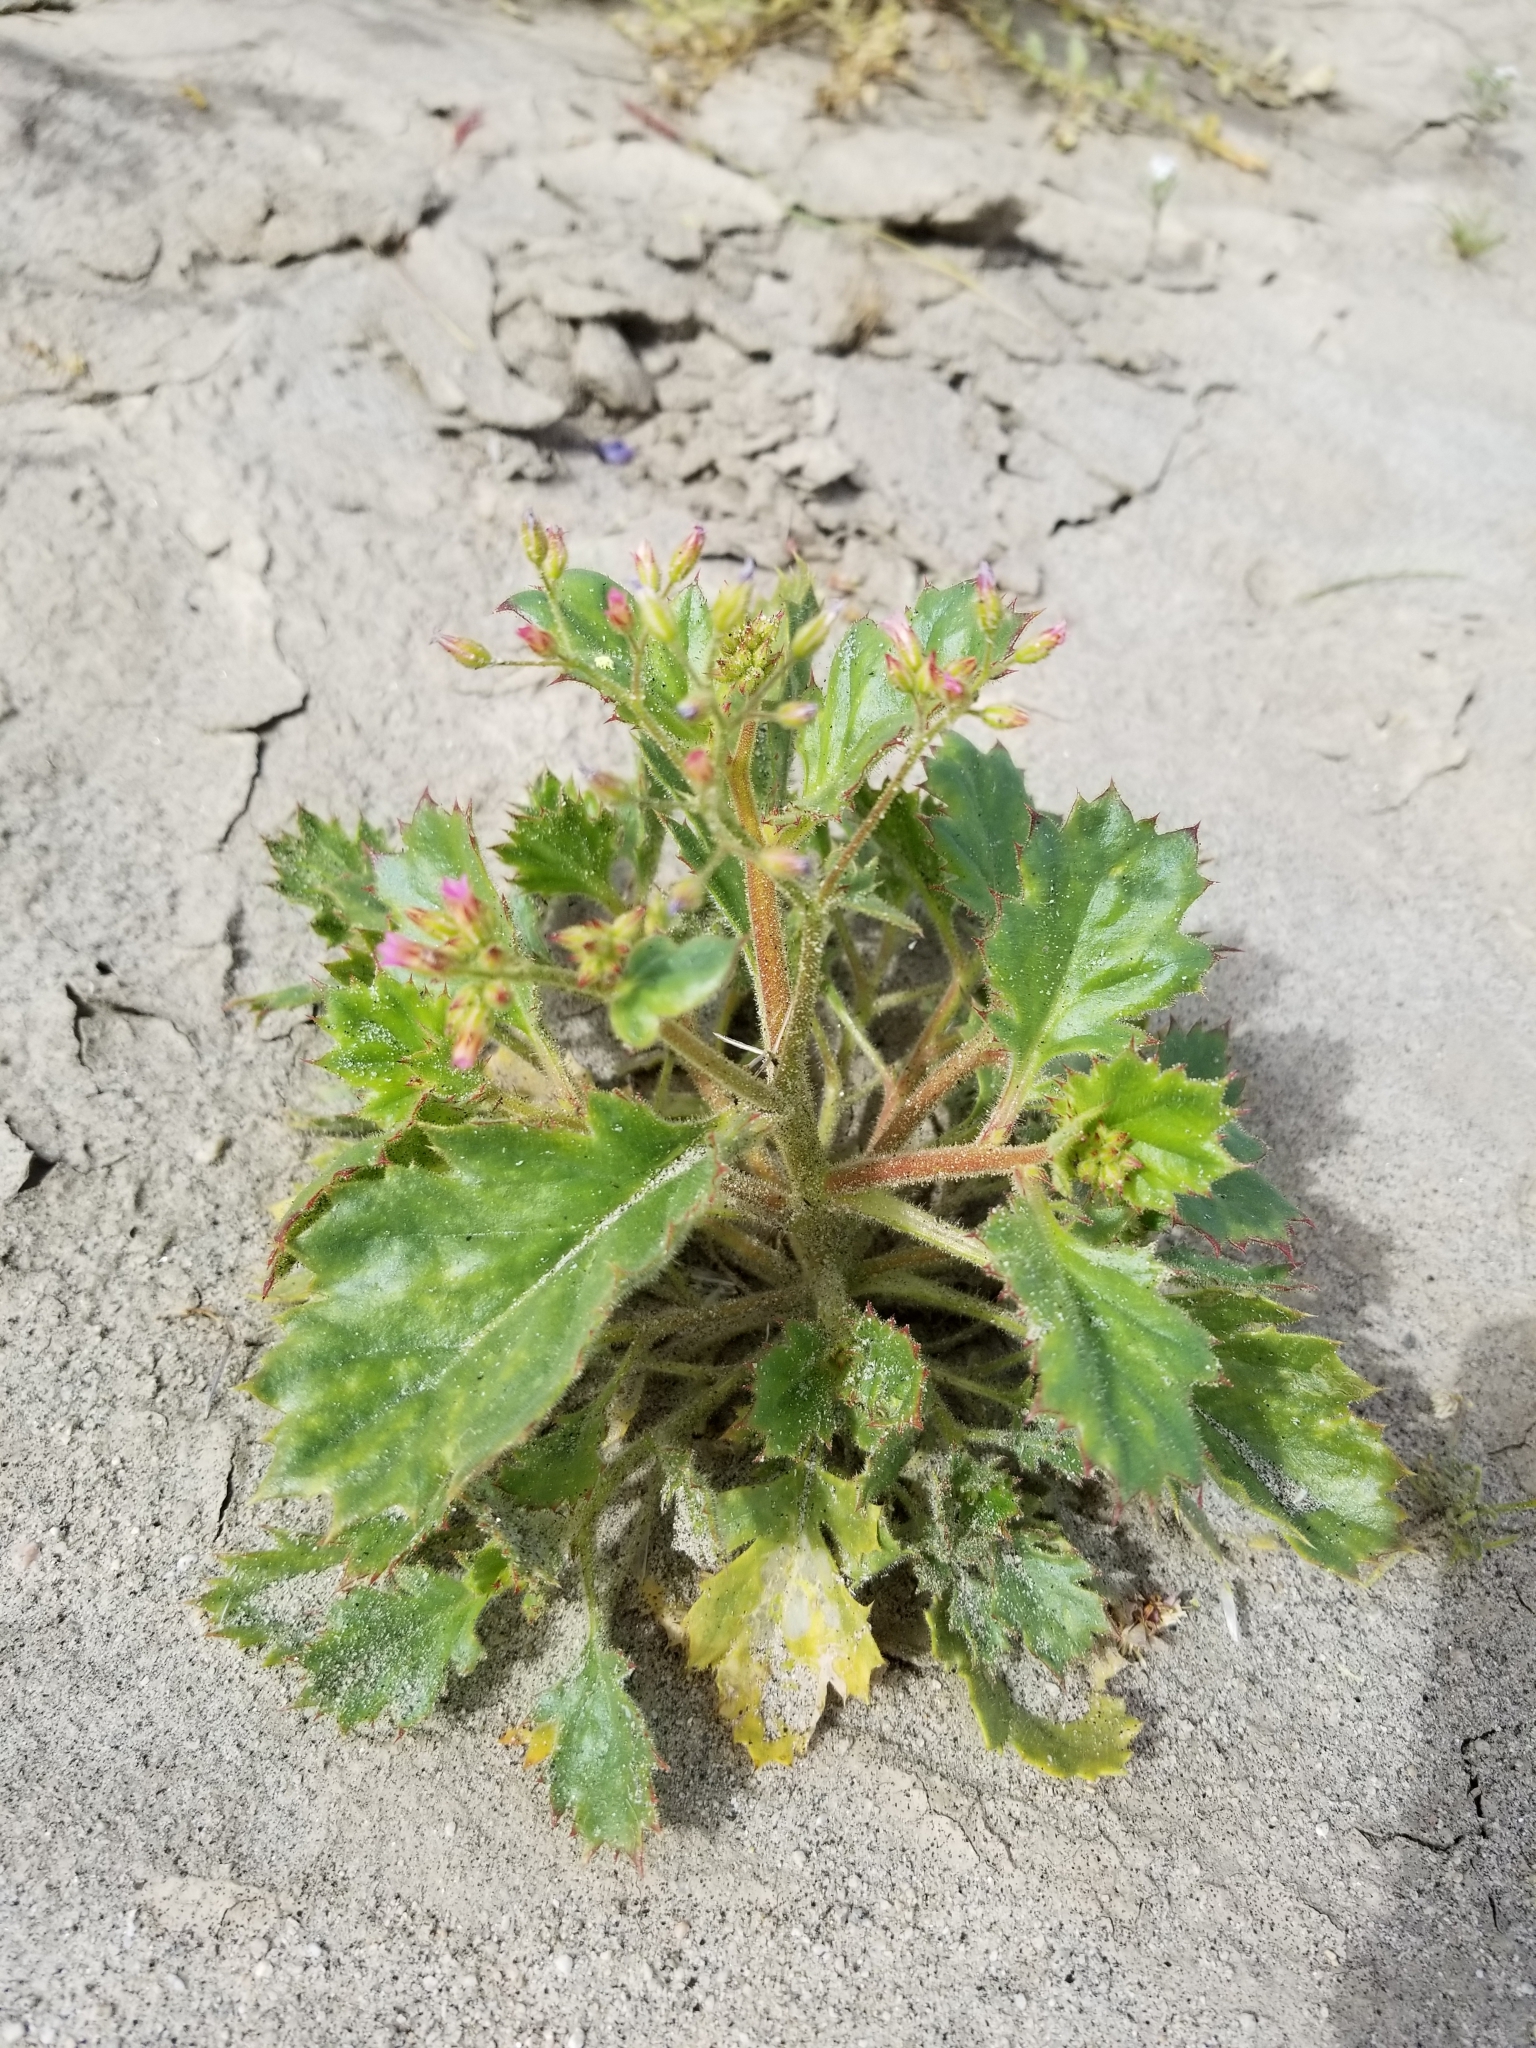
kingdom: Plantae
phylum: Tracheophyta
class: Magnoliopsida
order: Ericales
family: Polemoniaceae
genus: Aliciella
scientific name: Aliciella latifolia
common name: Broad-leaf gilia
